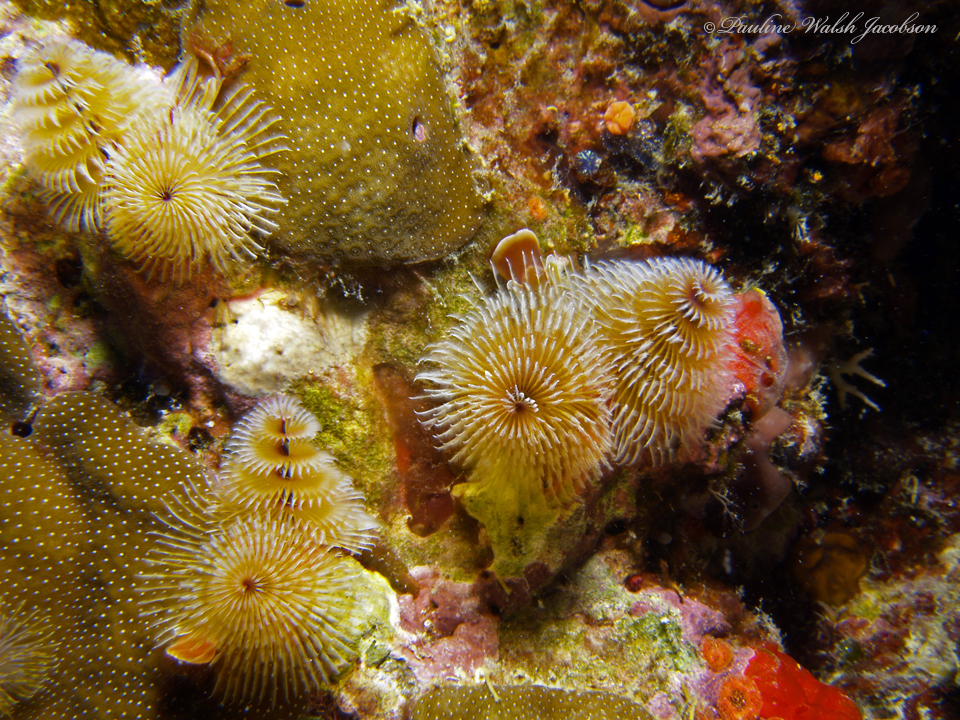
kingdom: Animalia
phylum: Annelida
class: Polychaeta
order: Sabellida
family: Serpulidae
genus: Spirobranchus
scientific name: Spirobranchus giganteus
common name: Christmas tree worm
